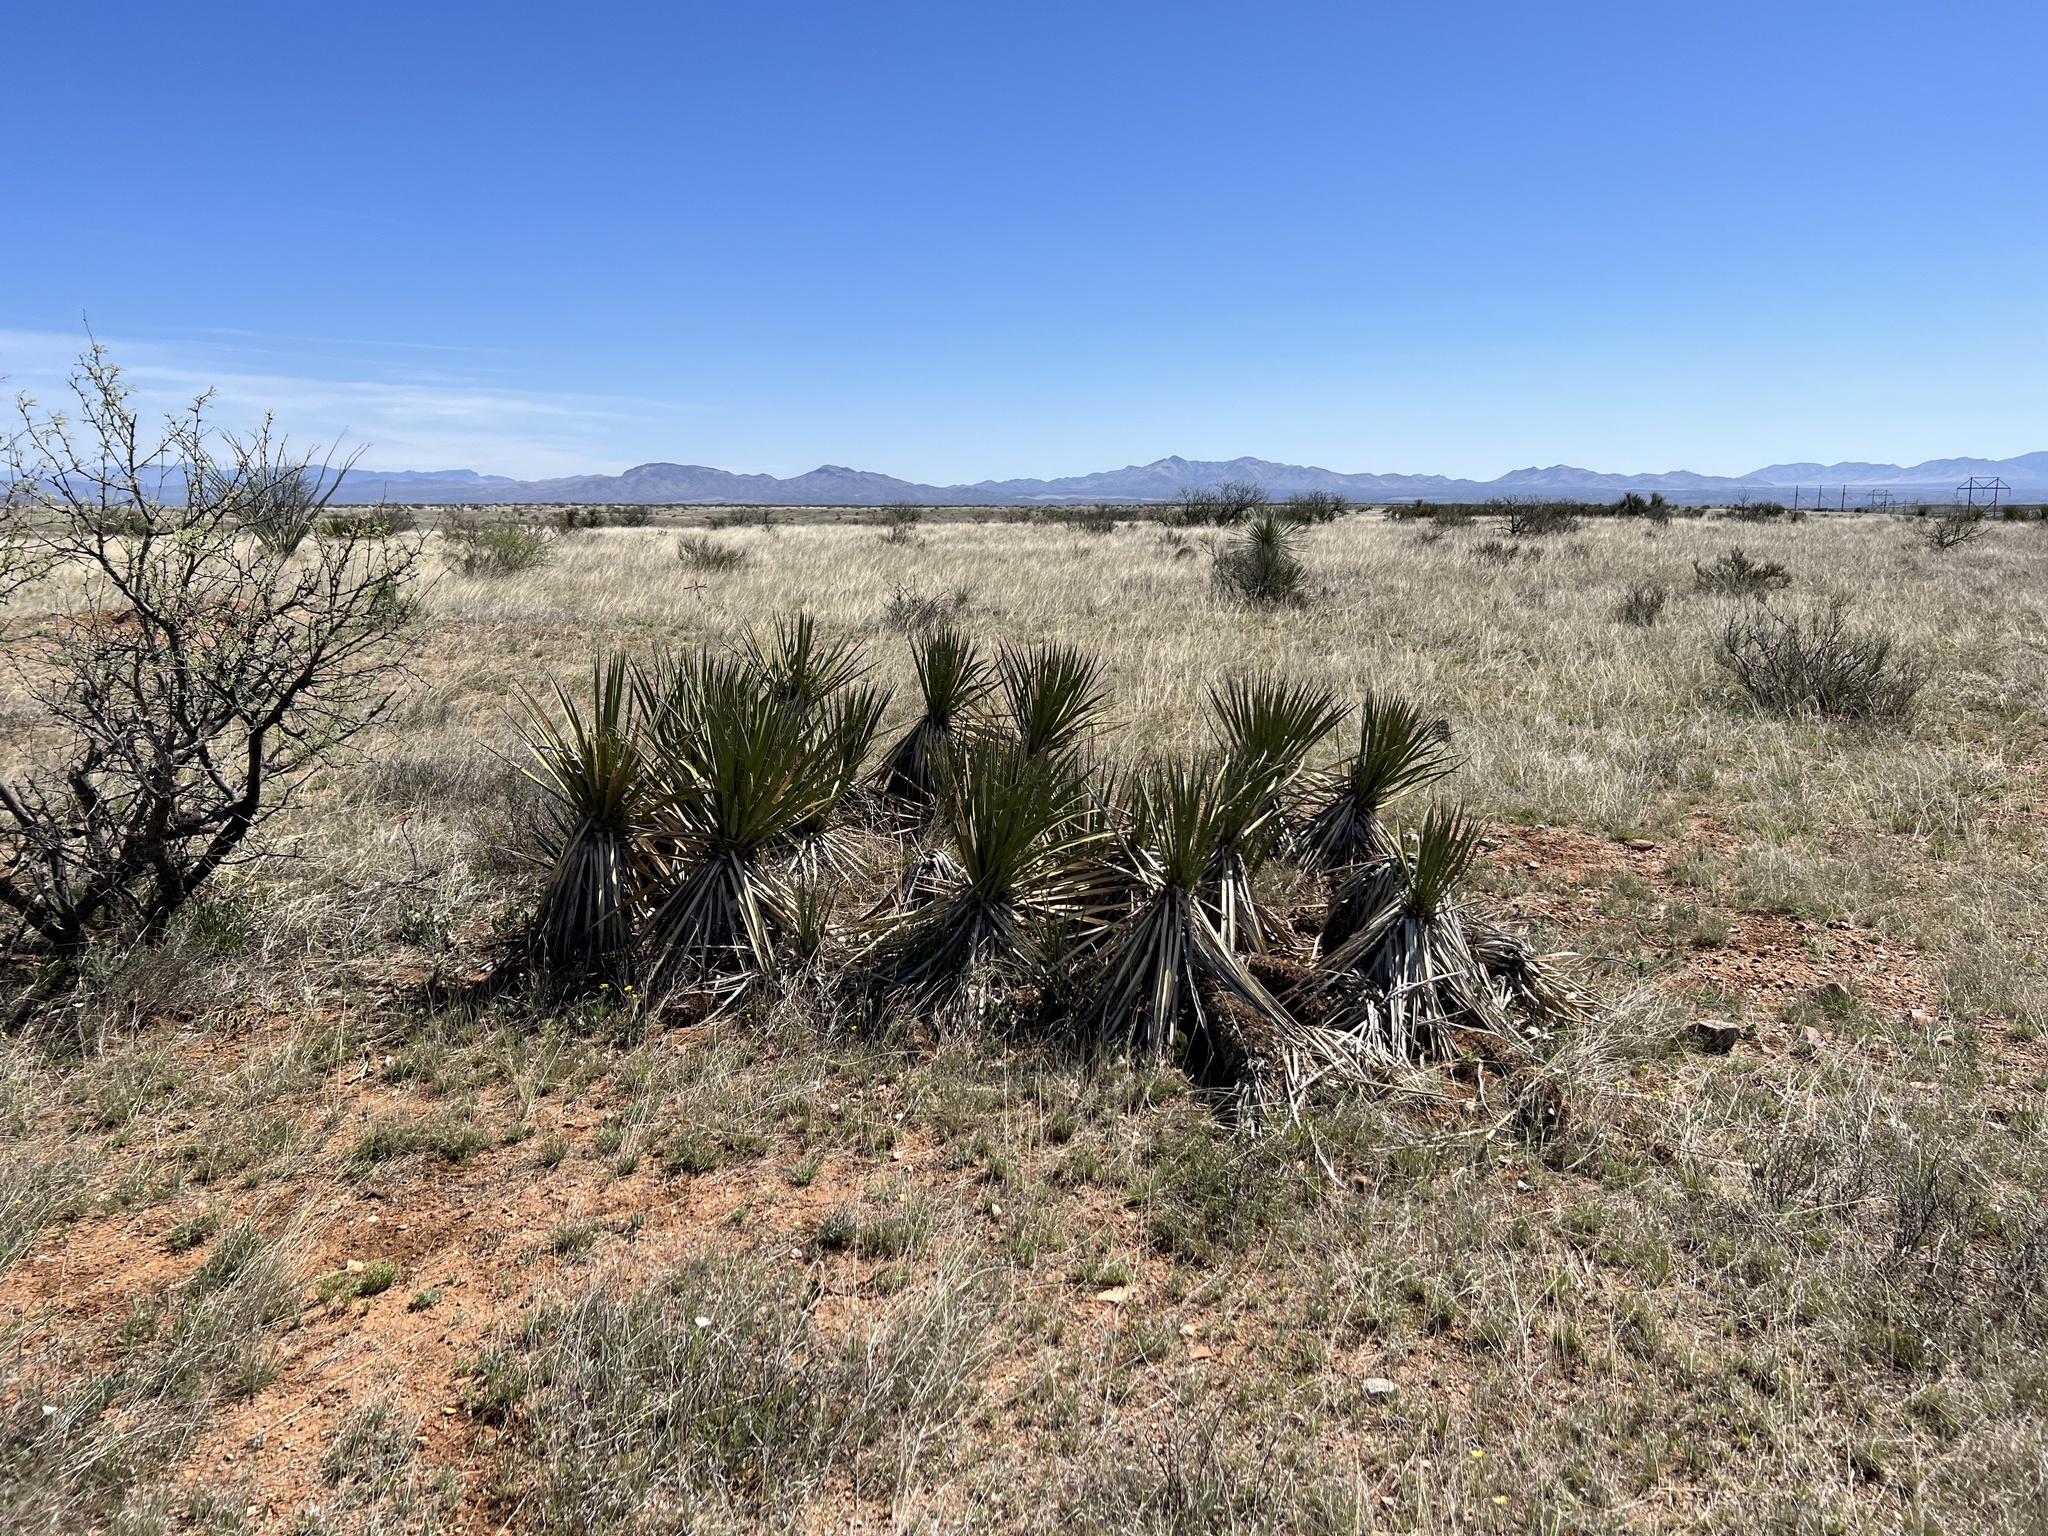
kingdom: Plantae
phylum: Tracheophyta
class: Liliopsida
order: Asparagales
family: Asparagaceae
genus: Yucca
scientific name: Yucca baccata
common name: Banana yucca
